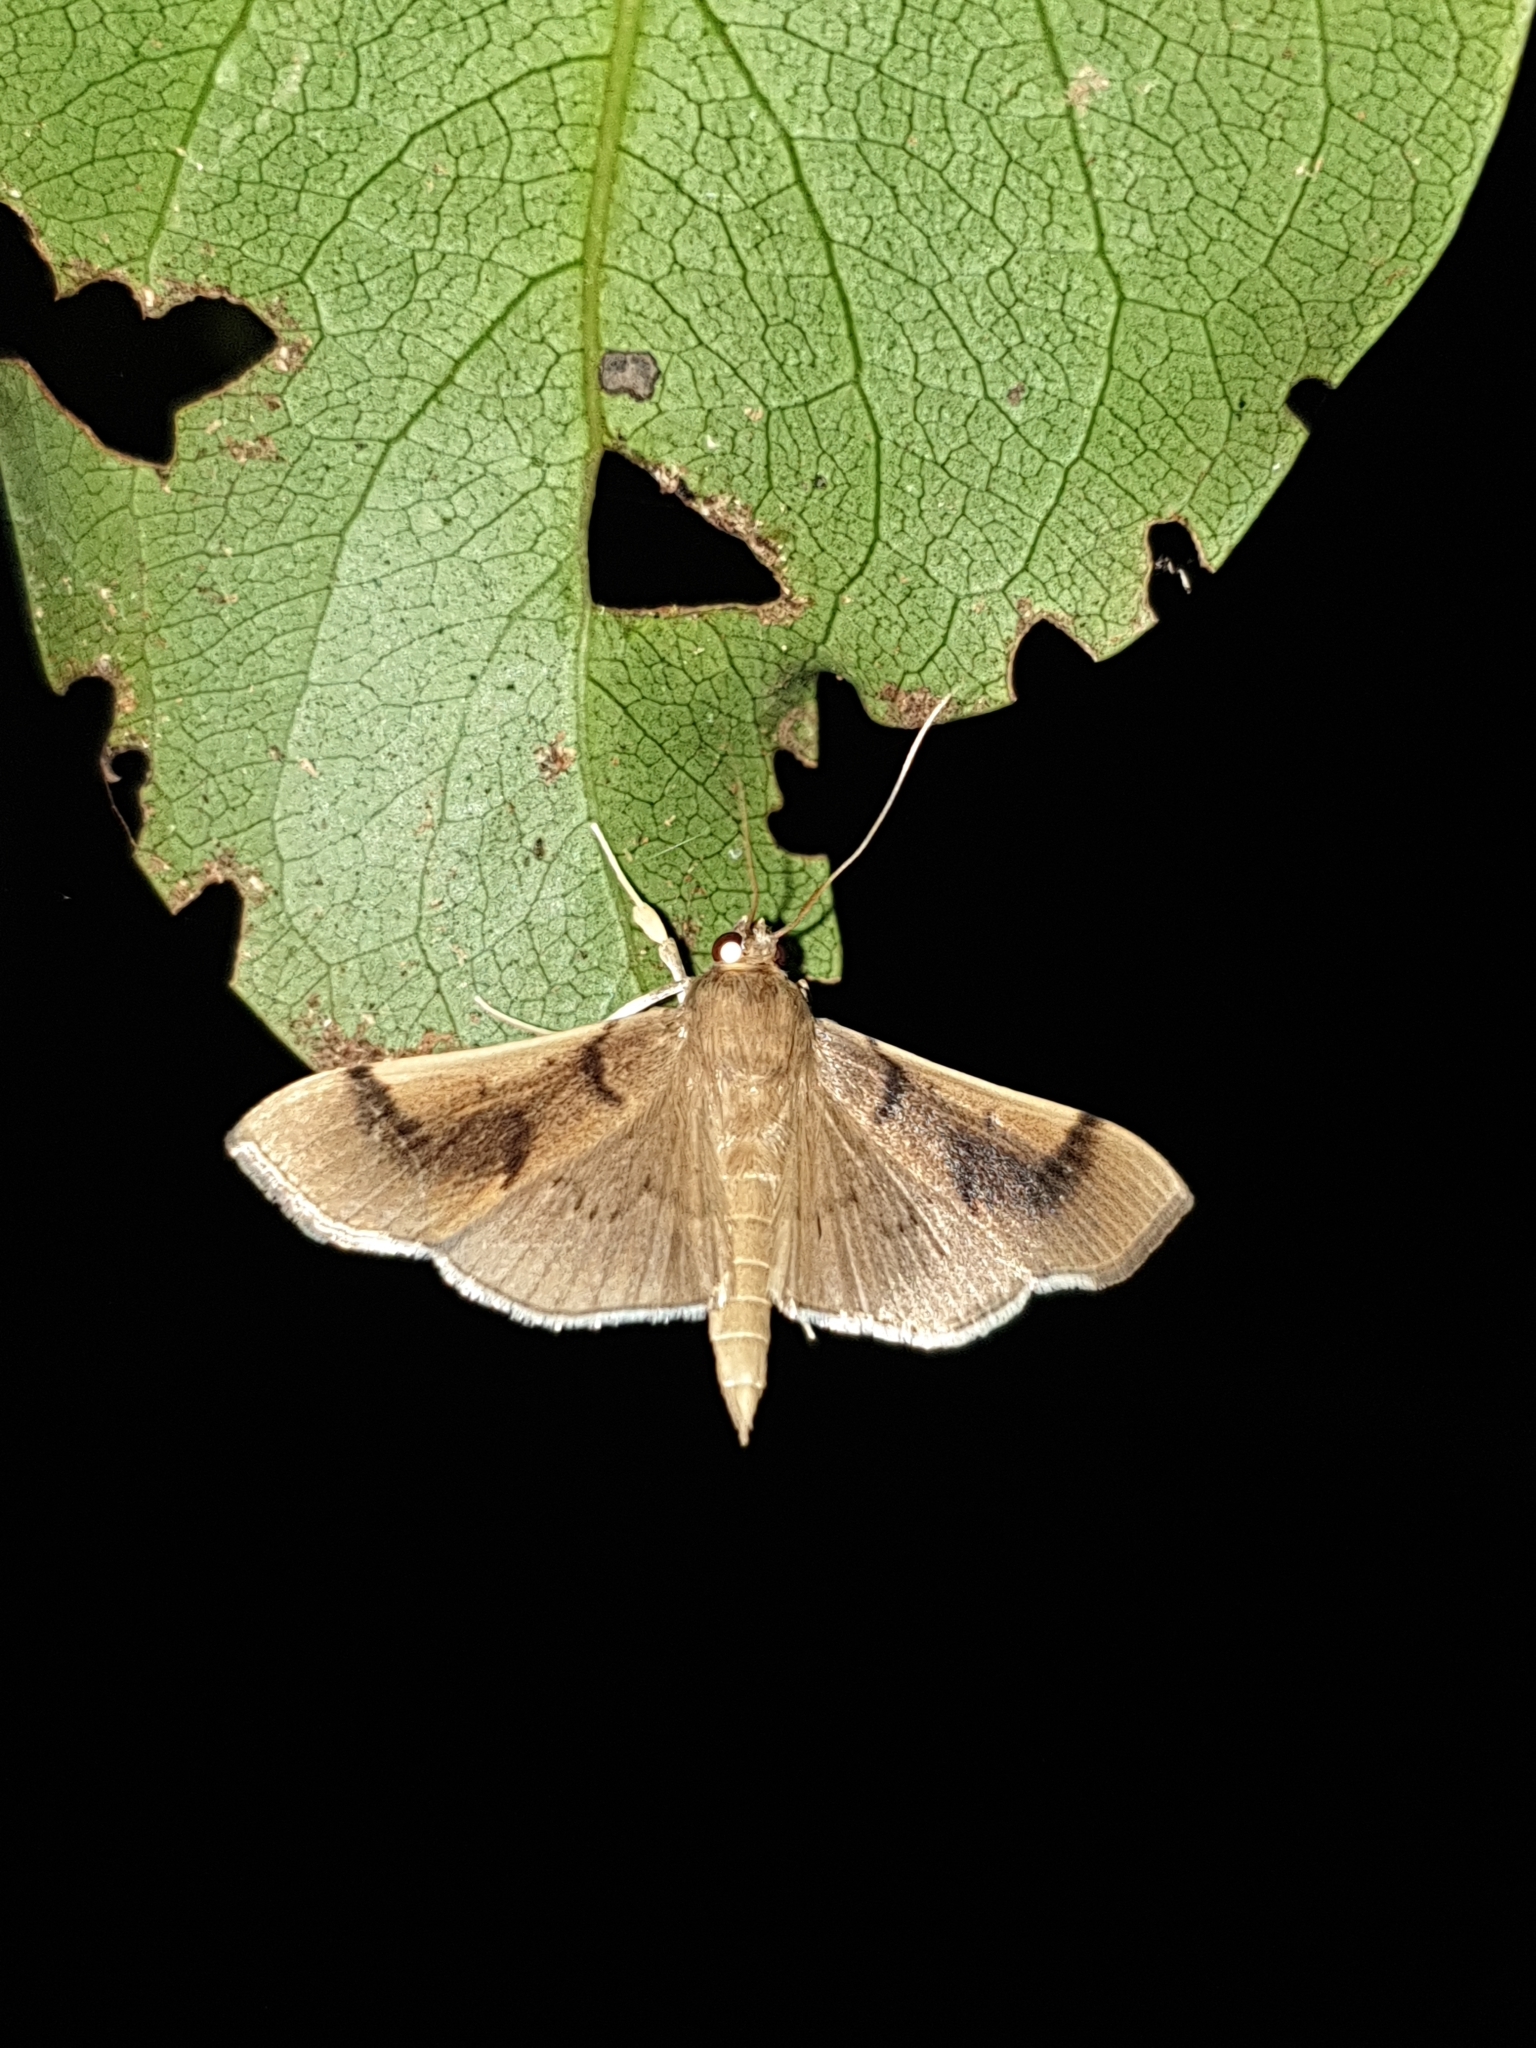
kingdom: Animalia
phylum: Arthropoda
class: Insecta
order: Lepidoptera
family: Crambidae
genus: Omiodes
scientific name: Omiodes
